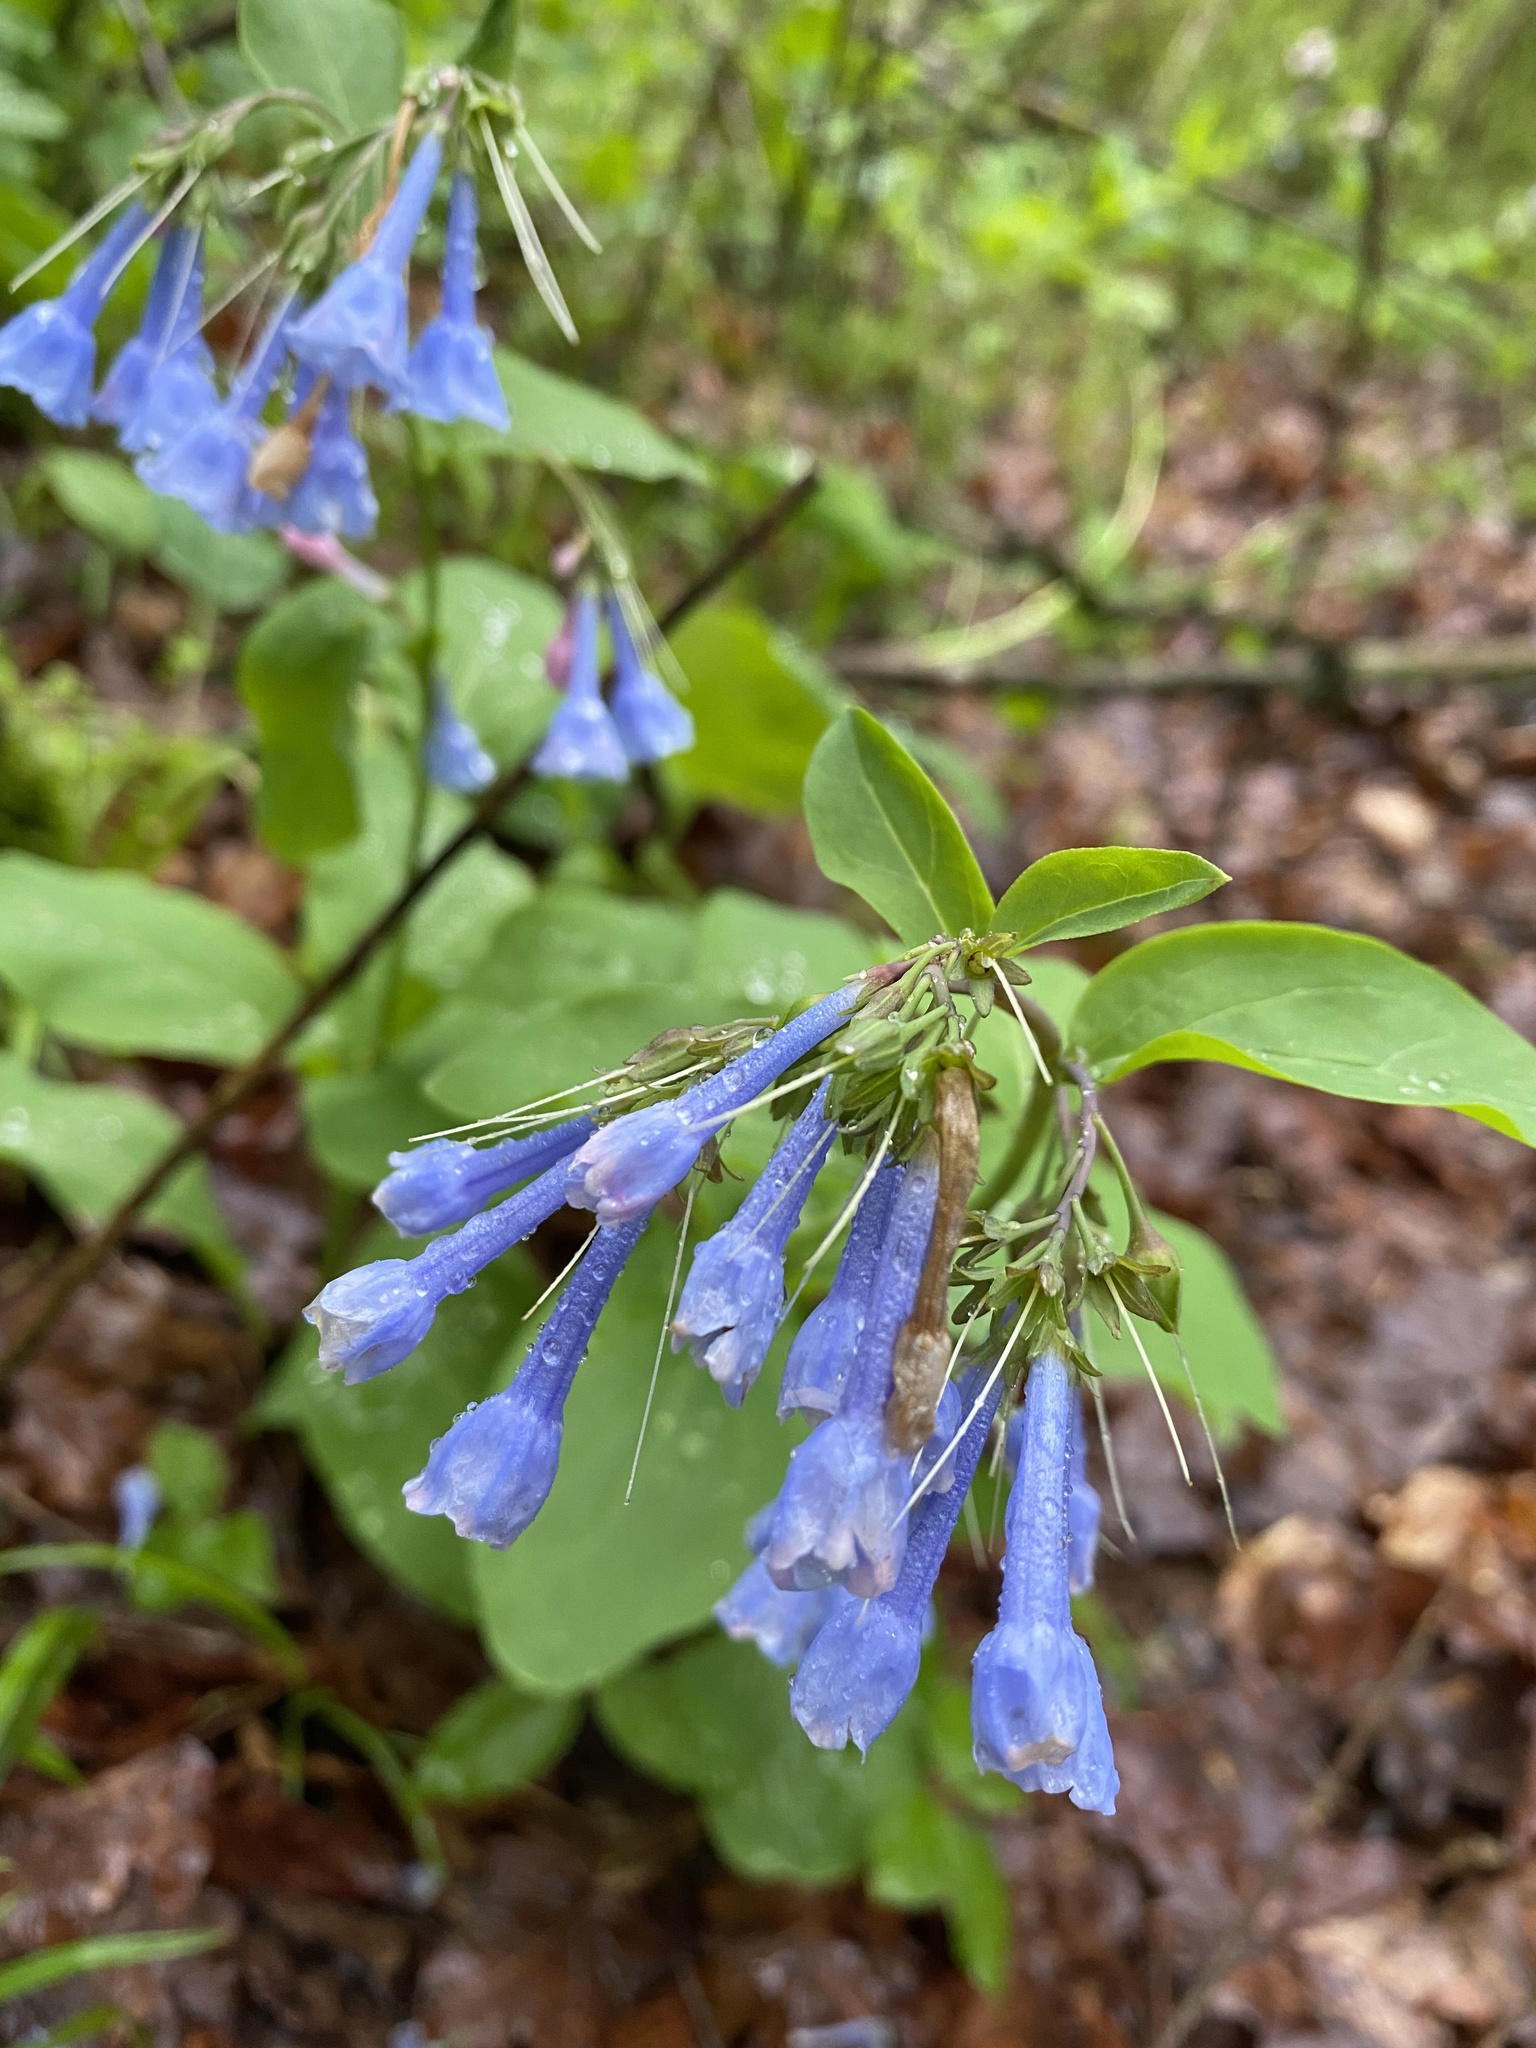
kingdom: Plantae
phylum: Tracheophyta
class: Magnoliopsida
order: Boraginales
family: Boraginaceae
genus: Mertensia
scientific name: Mertensia virginica
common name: Virginia bluebells
